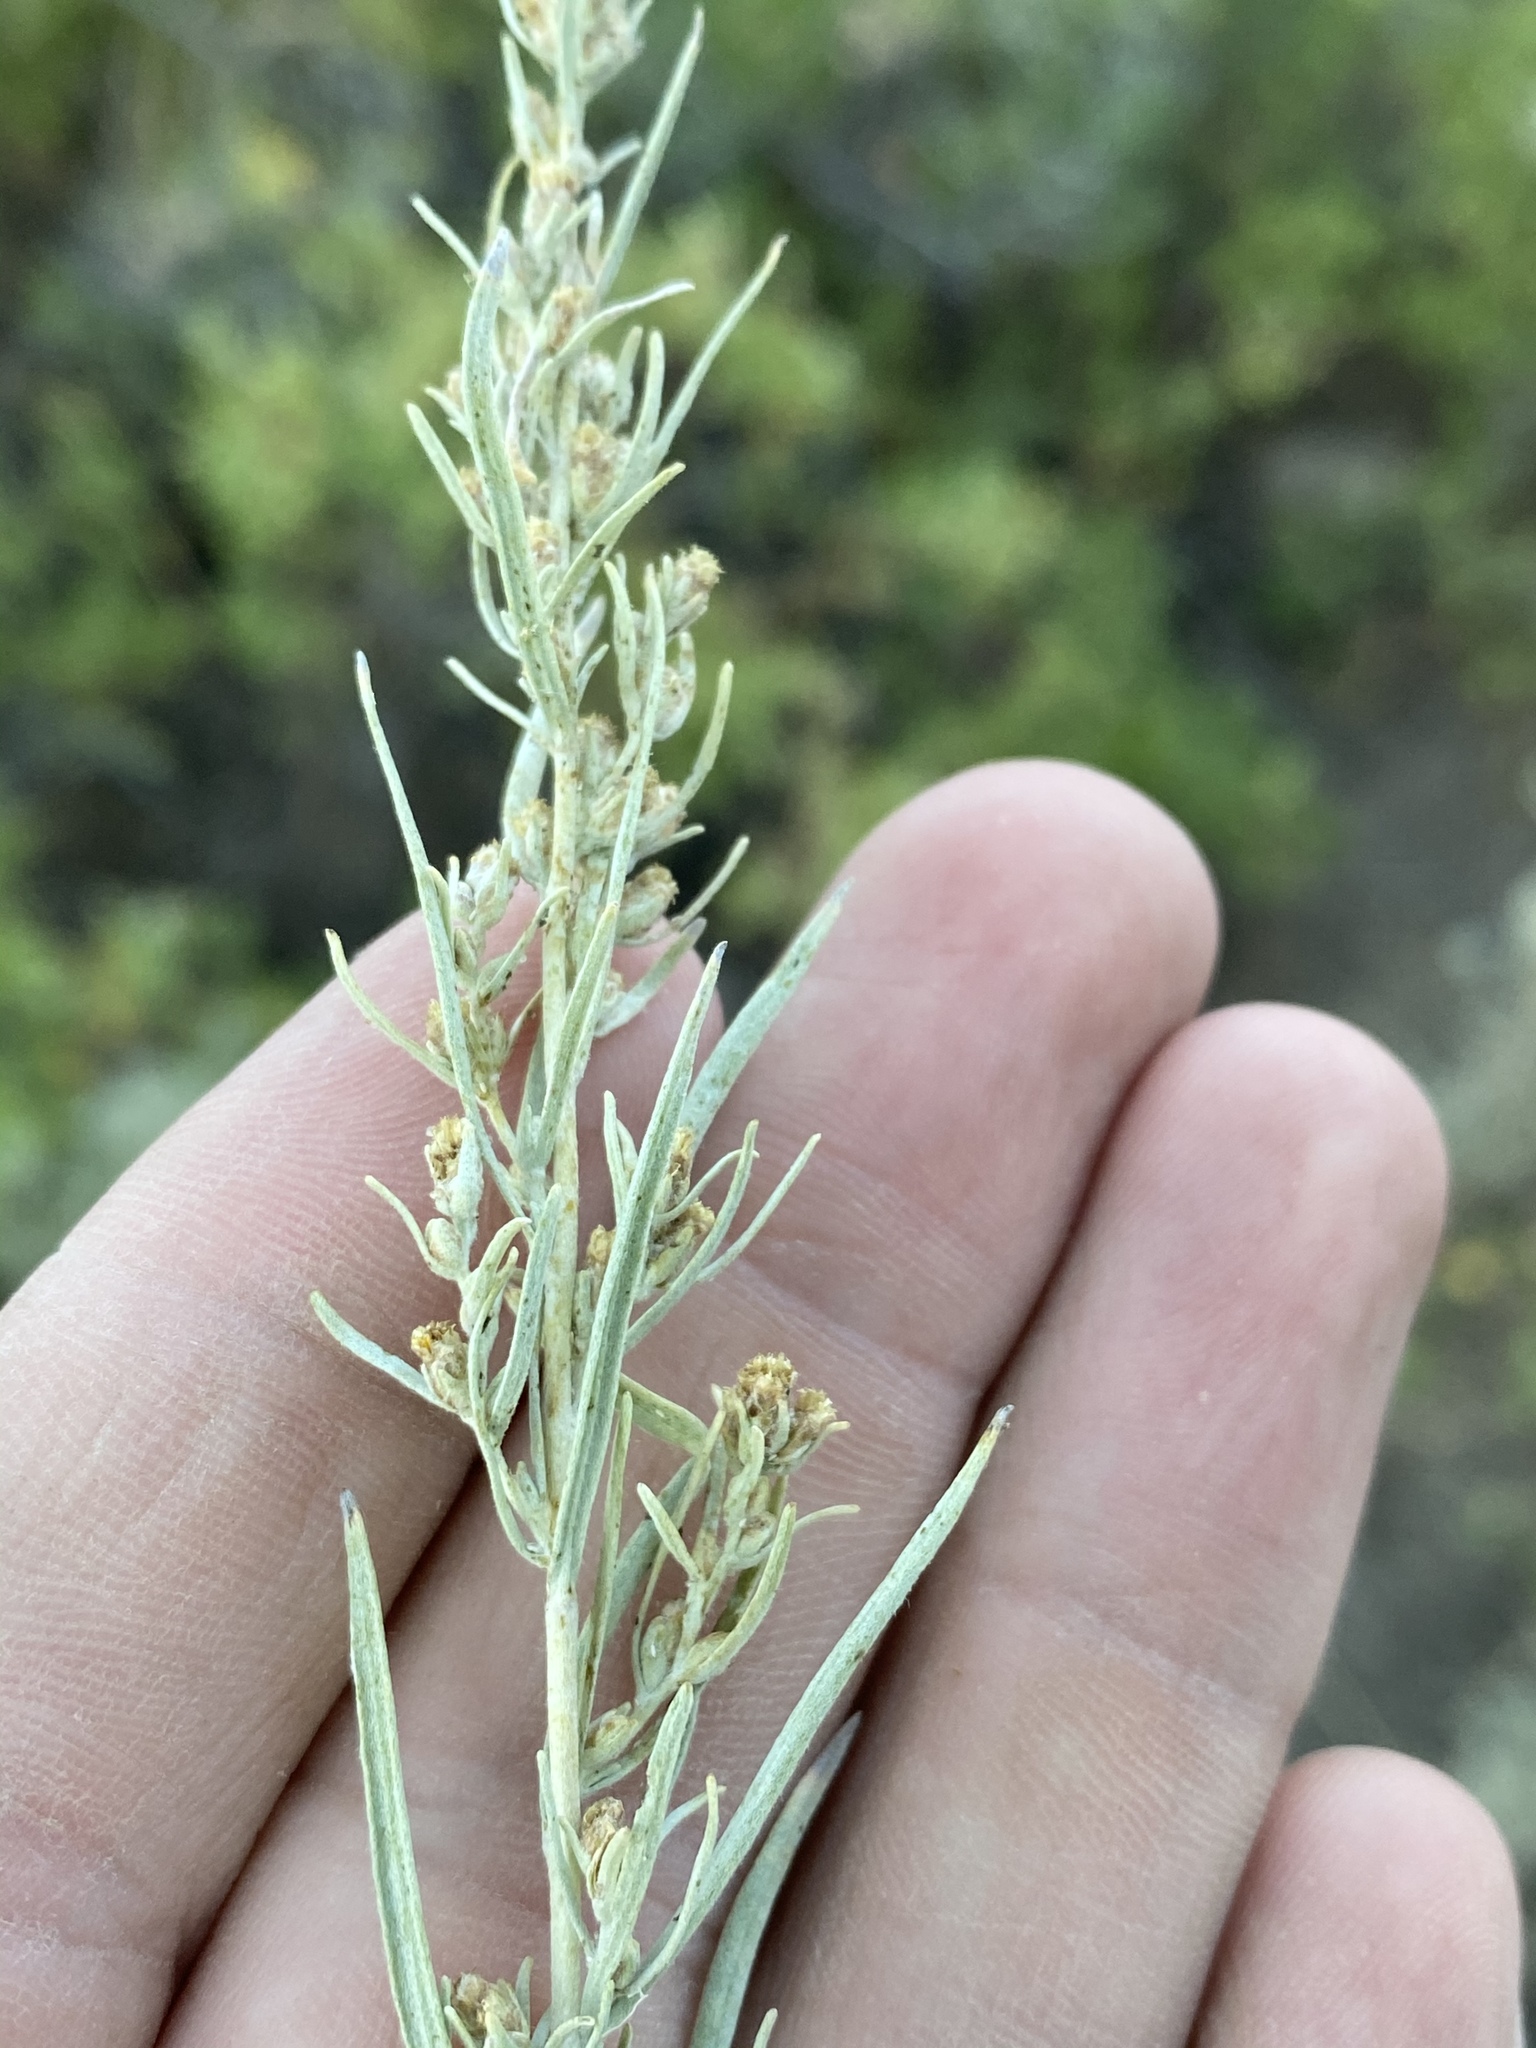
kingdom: Plantae
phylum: Tracheophyta
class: Magnoliopsida
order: Asterales
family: Asteraceae
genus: Artemisia
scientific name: Artemisia cana
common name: Silver sagebrush
